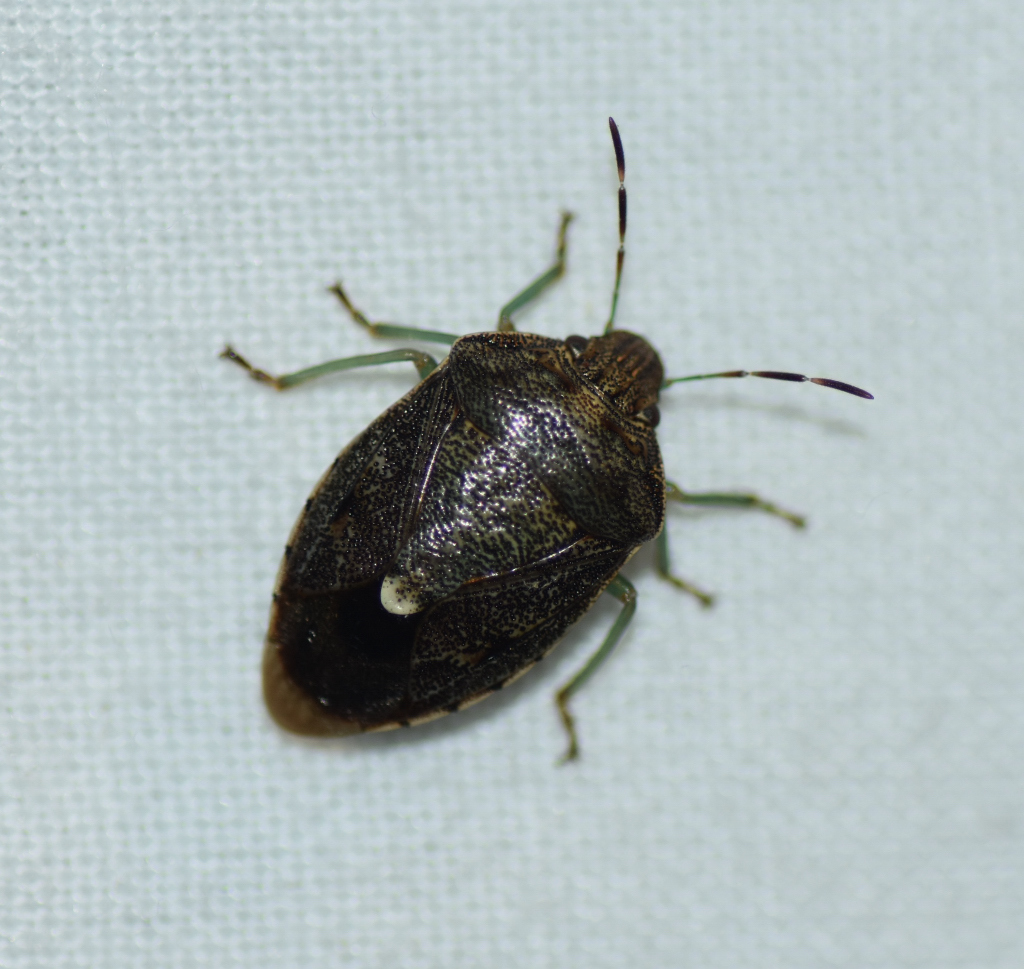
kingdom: Animalia
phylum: Arthropoda
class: Insecta
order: Hemiptera
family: Pentatomidae
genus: Banasa
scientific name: Banasa sordida
